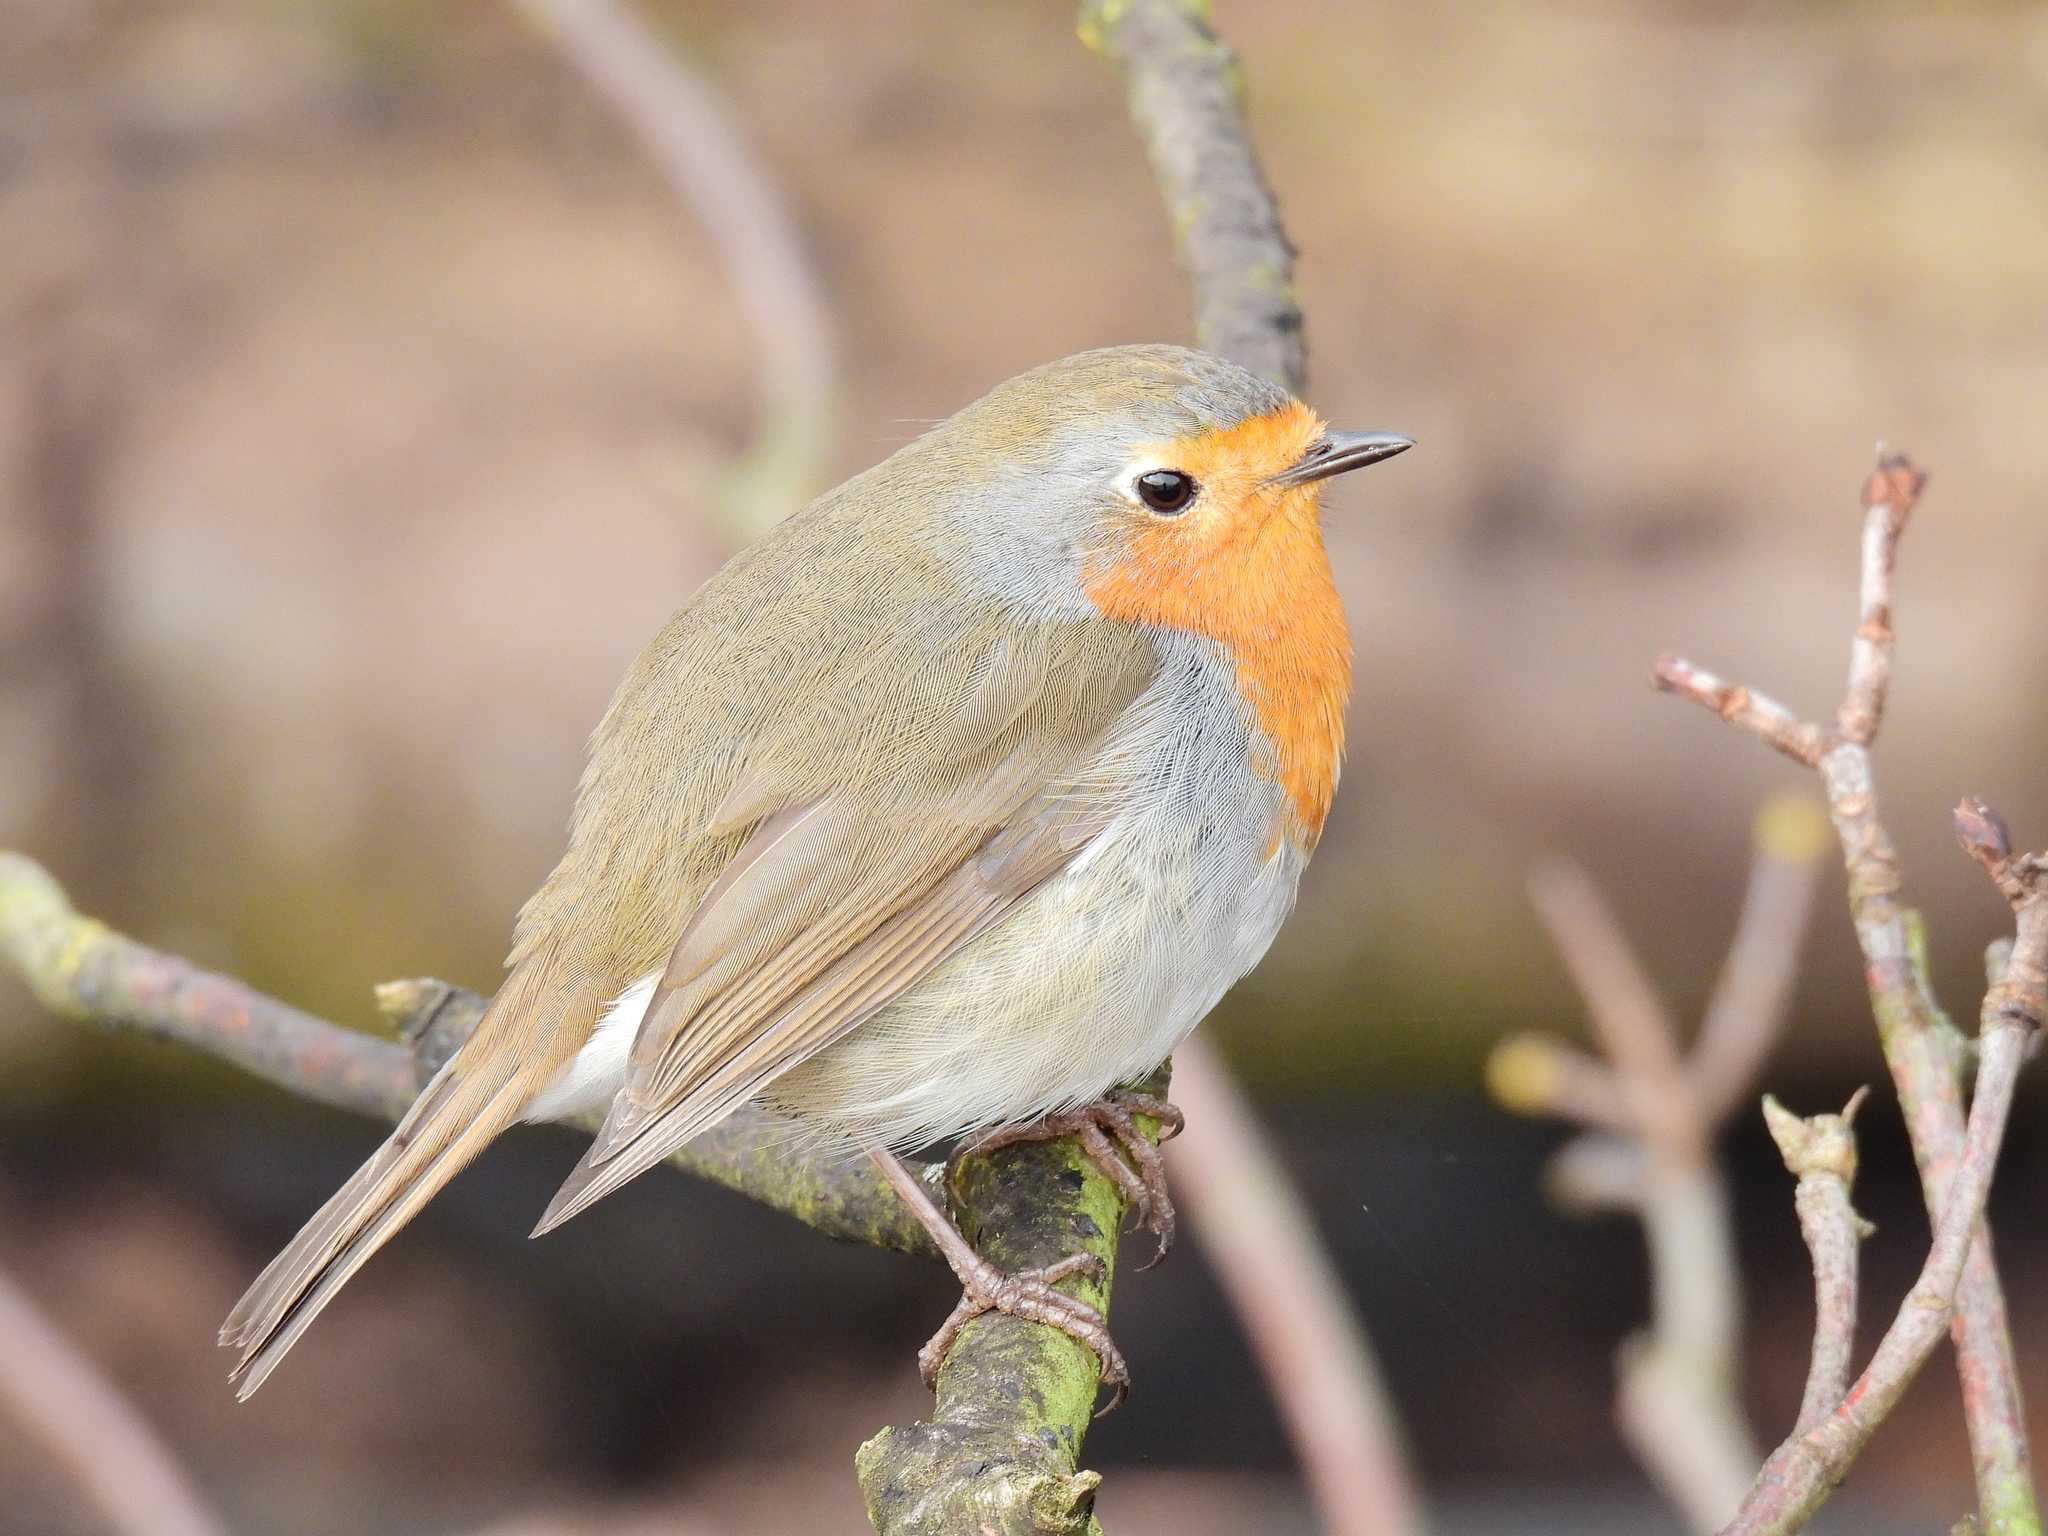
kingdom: Animalia
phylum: Chordata
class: Aves
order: Passeriformes
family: Muscicapidae
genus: Erithacus
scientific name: Erithacus rubecula
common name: European robin
